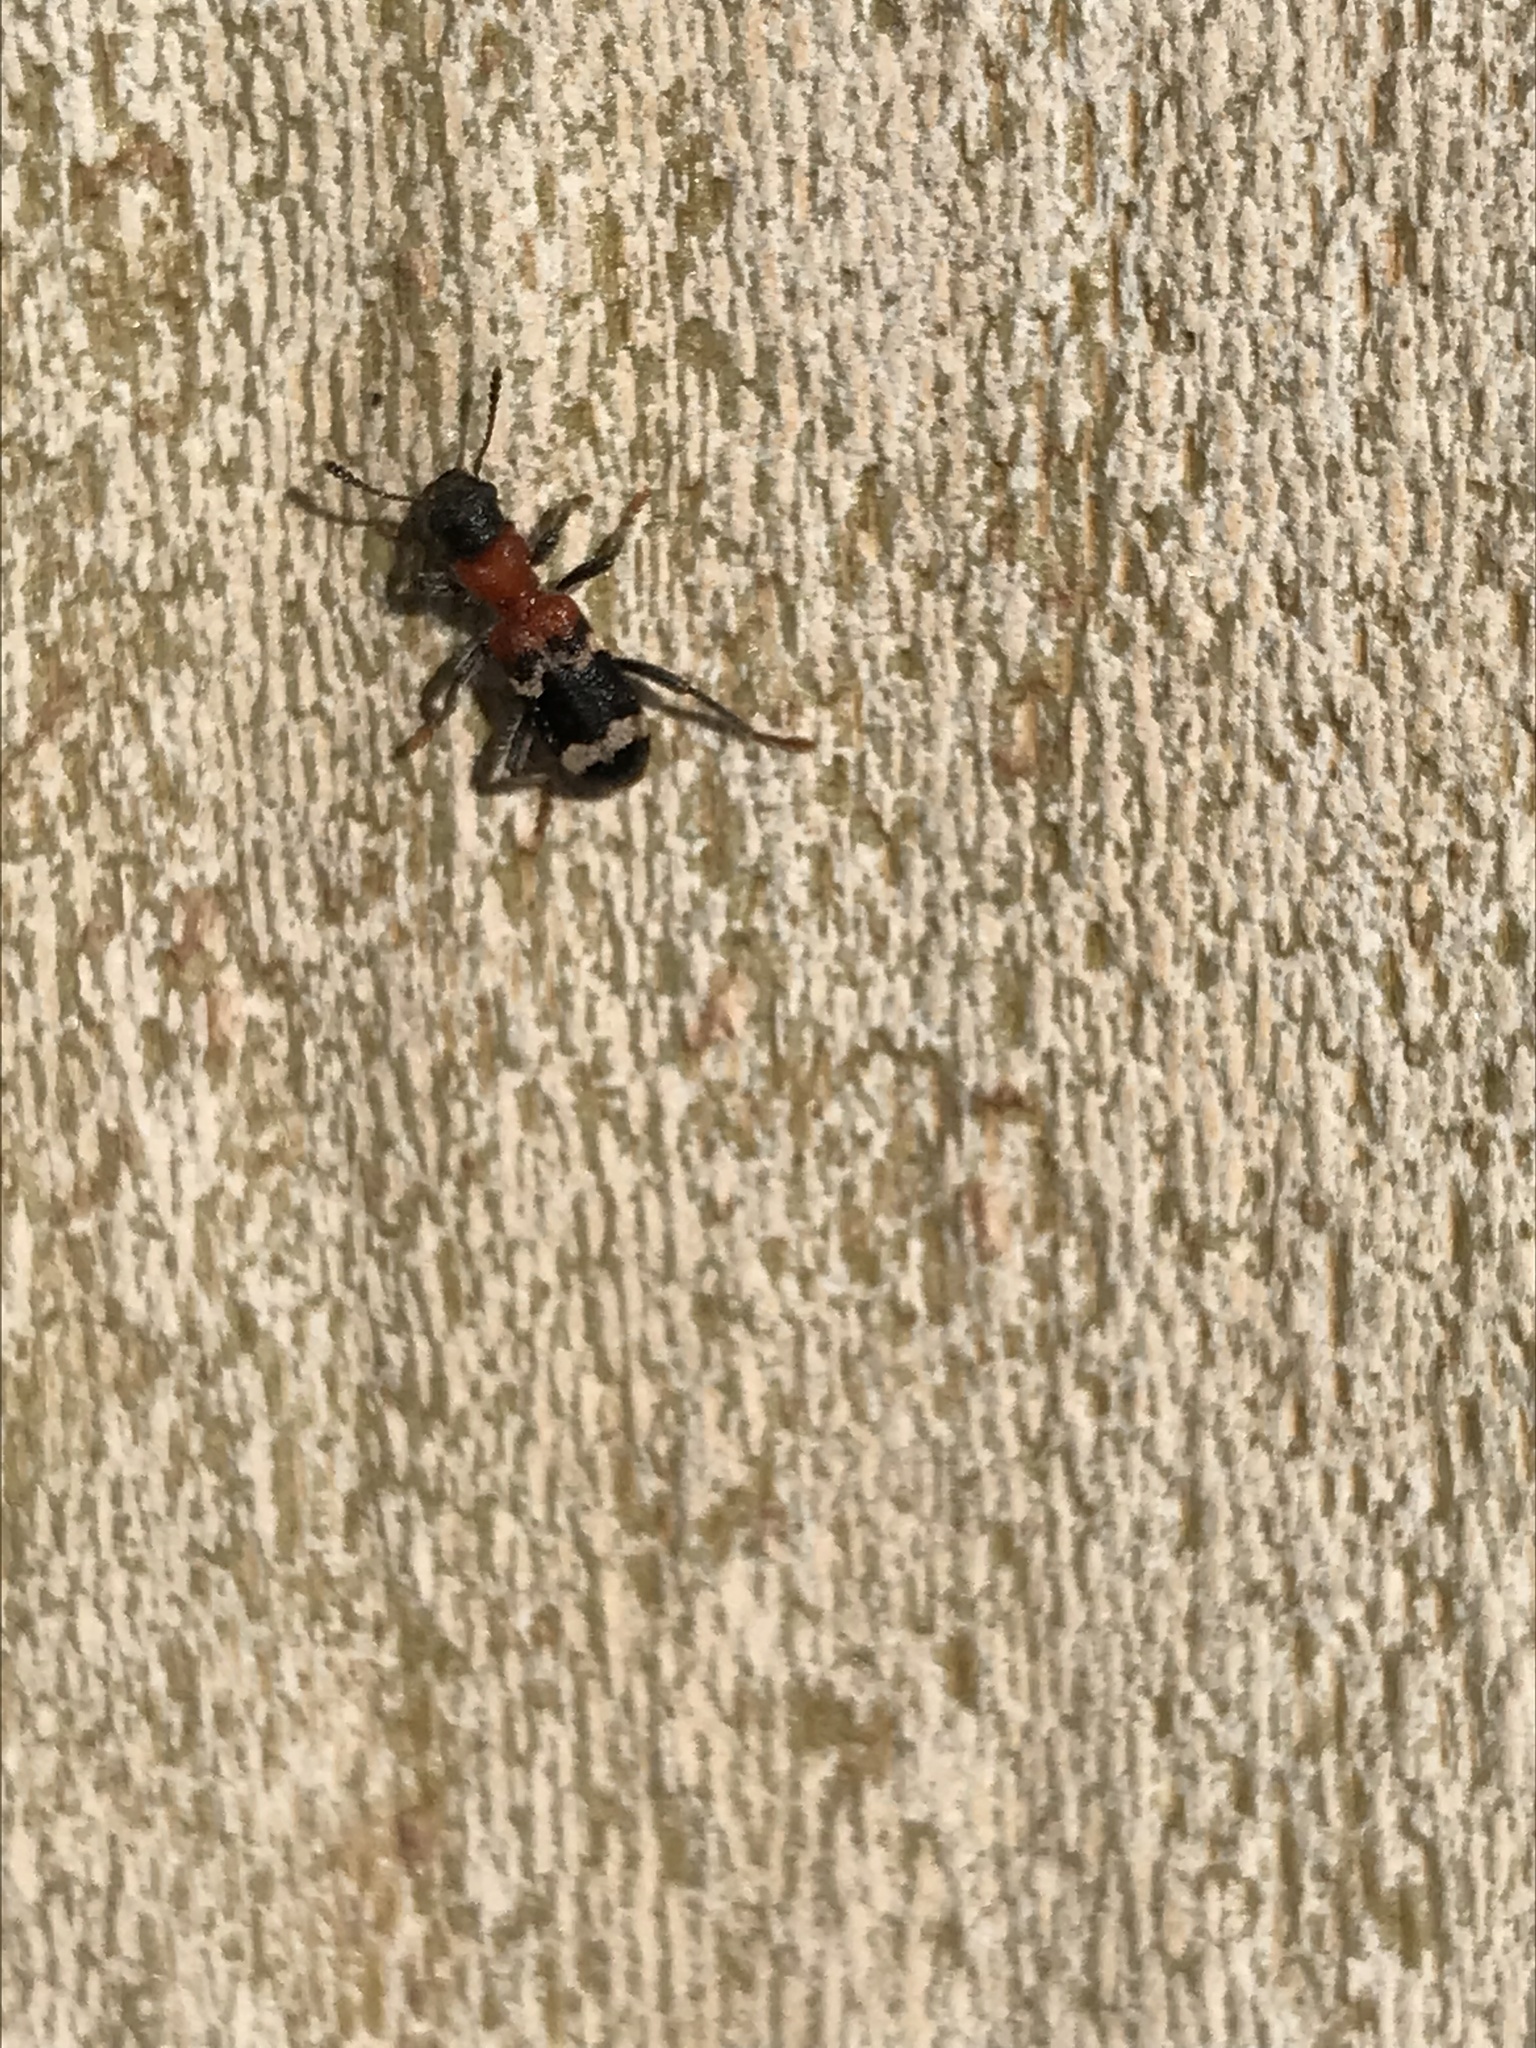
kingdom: Animalia
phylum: Arthropoda
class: Insecta
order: Coleoptera
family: Cleridae
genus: Thanasimus
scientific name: Thanasimus formicarius
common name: Ant beetle
